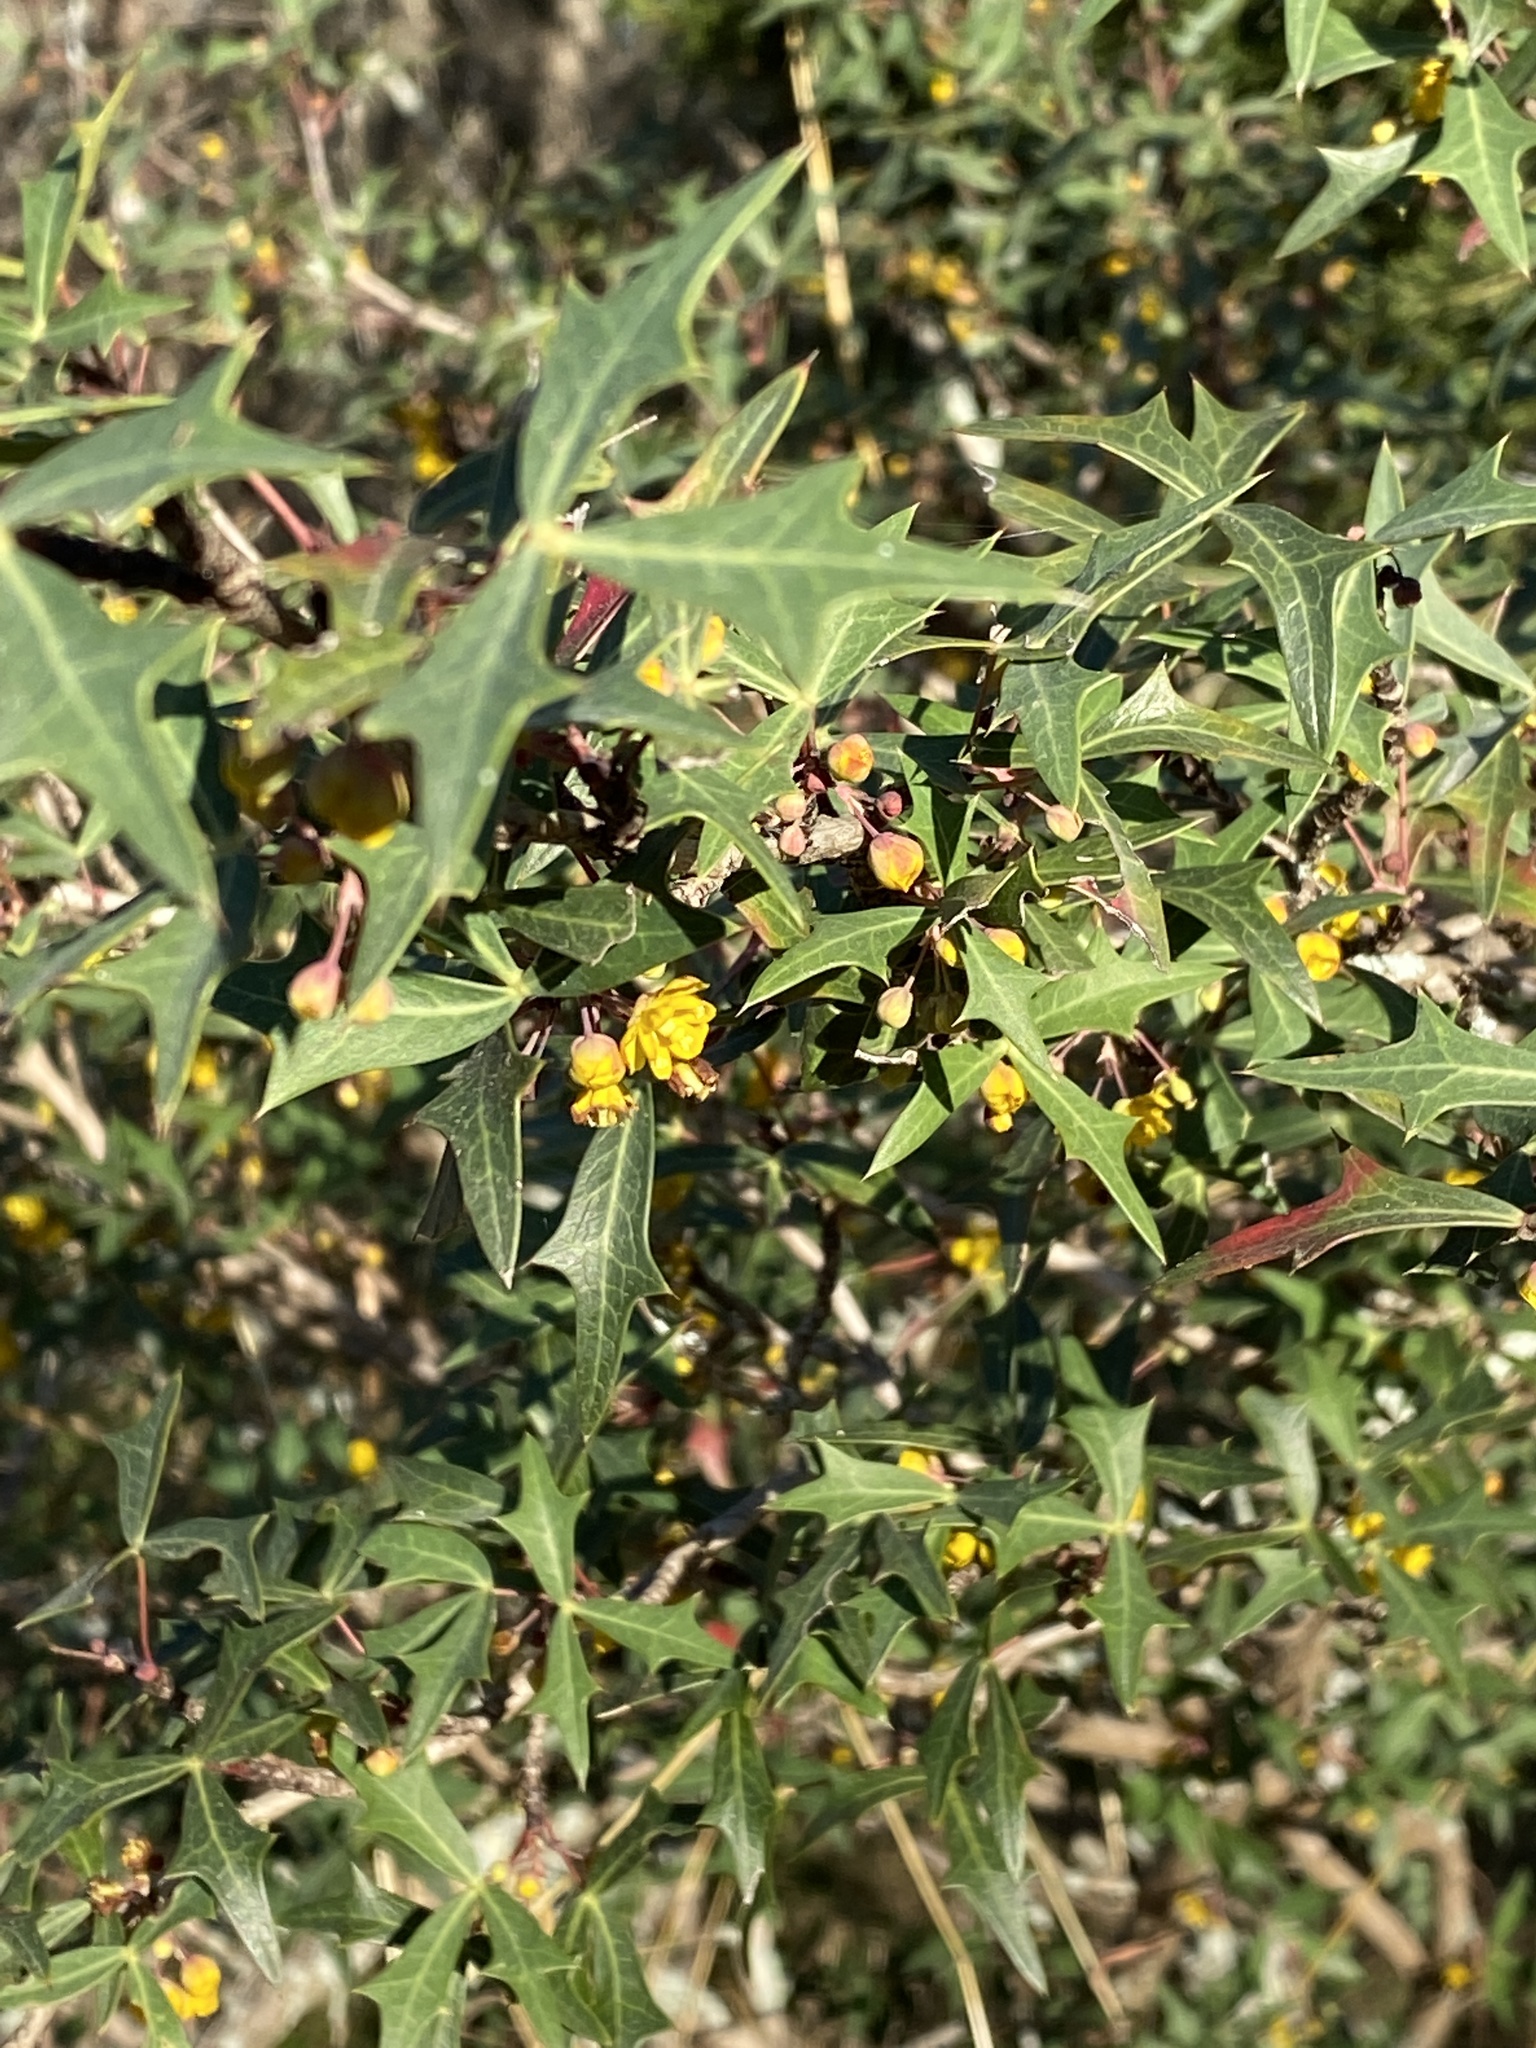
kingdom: Plantae
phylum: Tracheophyta
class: Magnoliopsida
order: Ranunculales
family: Berberidaceae
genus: Alloberberis
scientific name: Alloberberis trifoliolata
